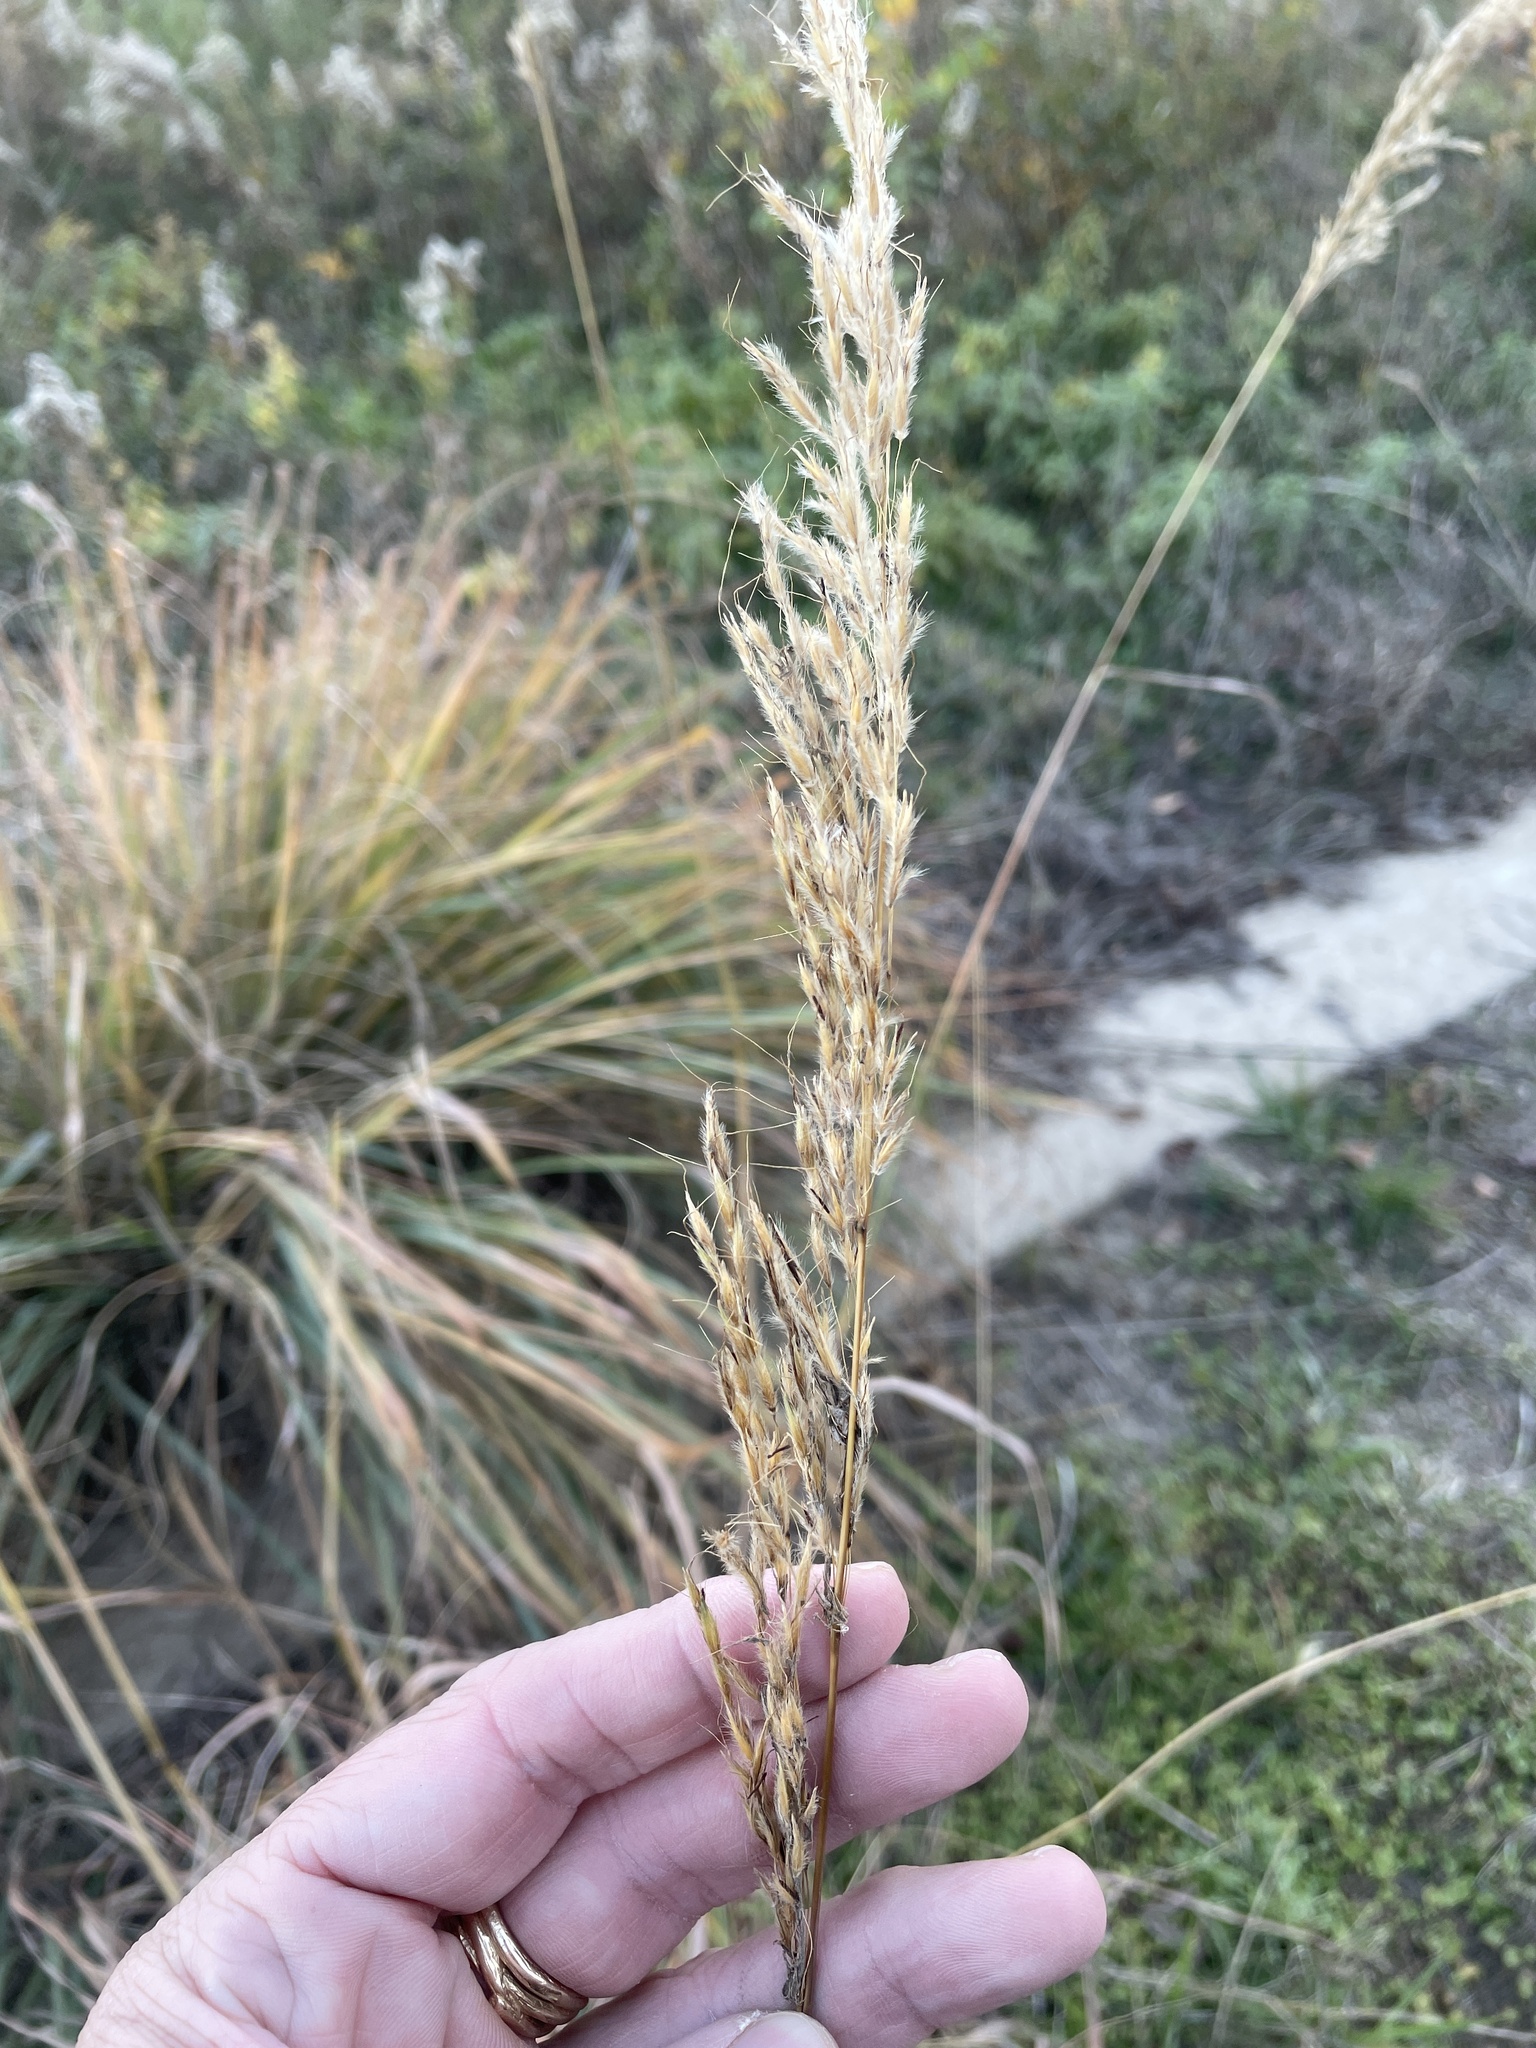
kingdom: Plantae
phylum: Tracheophyta
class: Liliopsida
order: Poales
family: Poaceae
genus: Sorghastrum
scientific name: Sorghastrum nutans
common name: Indian grass
